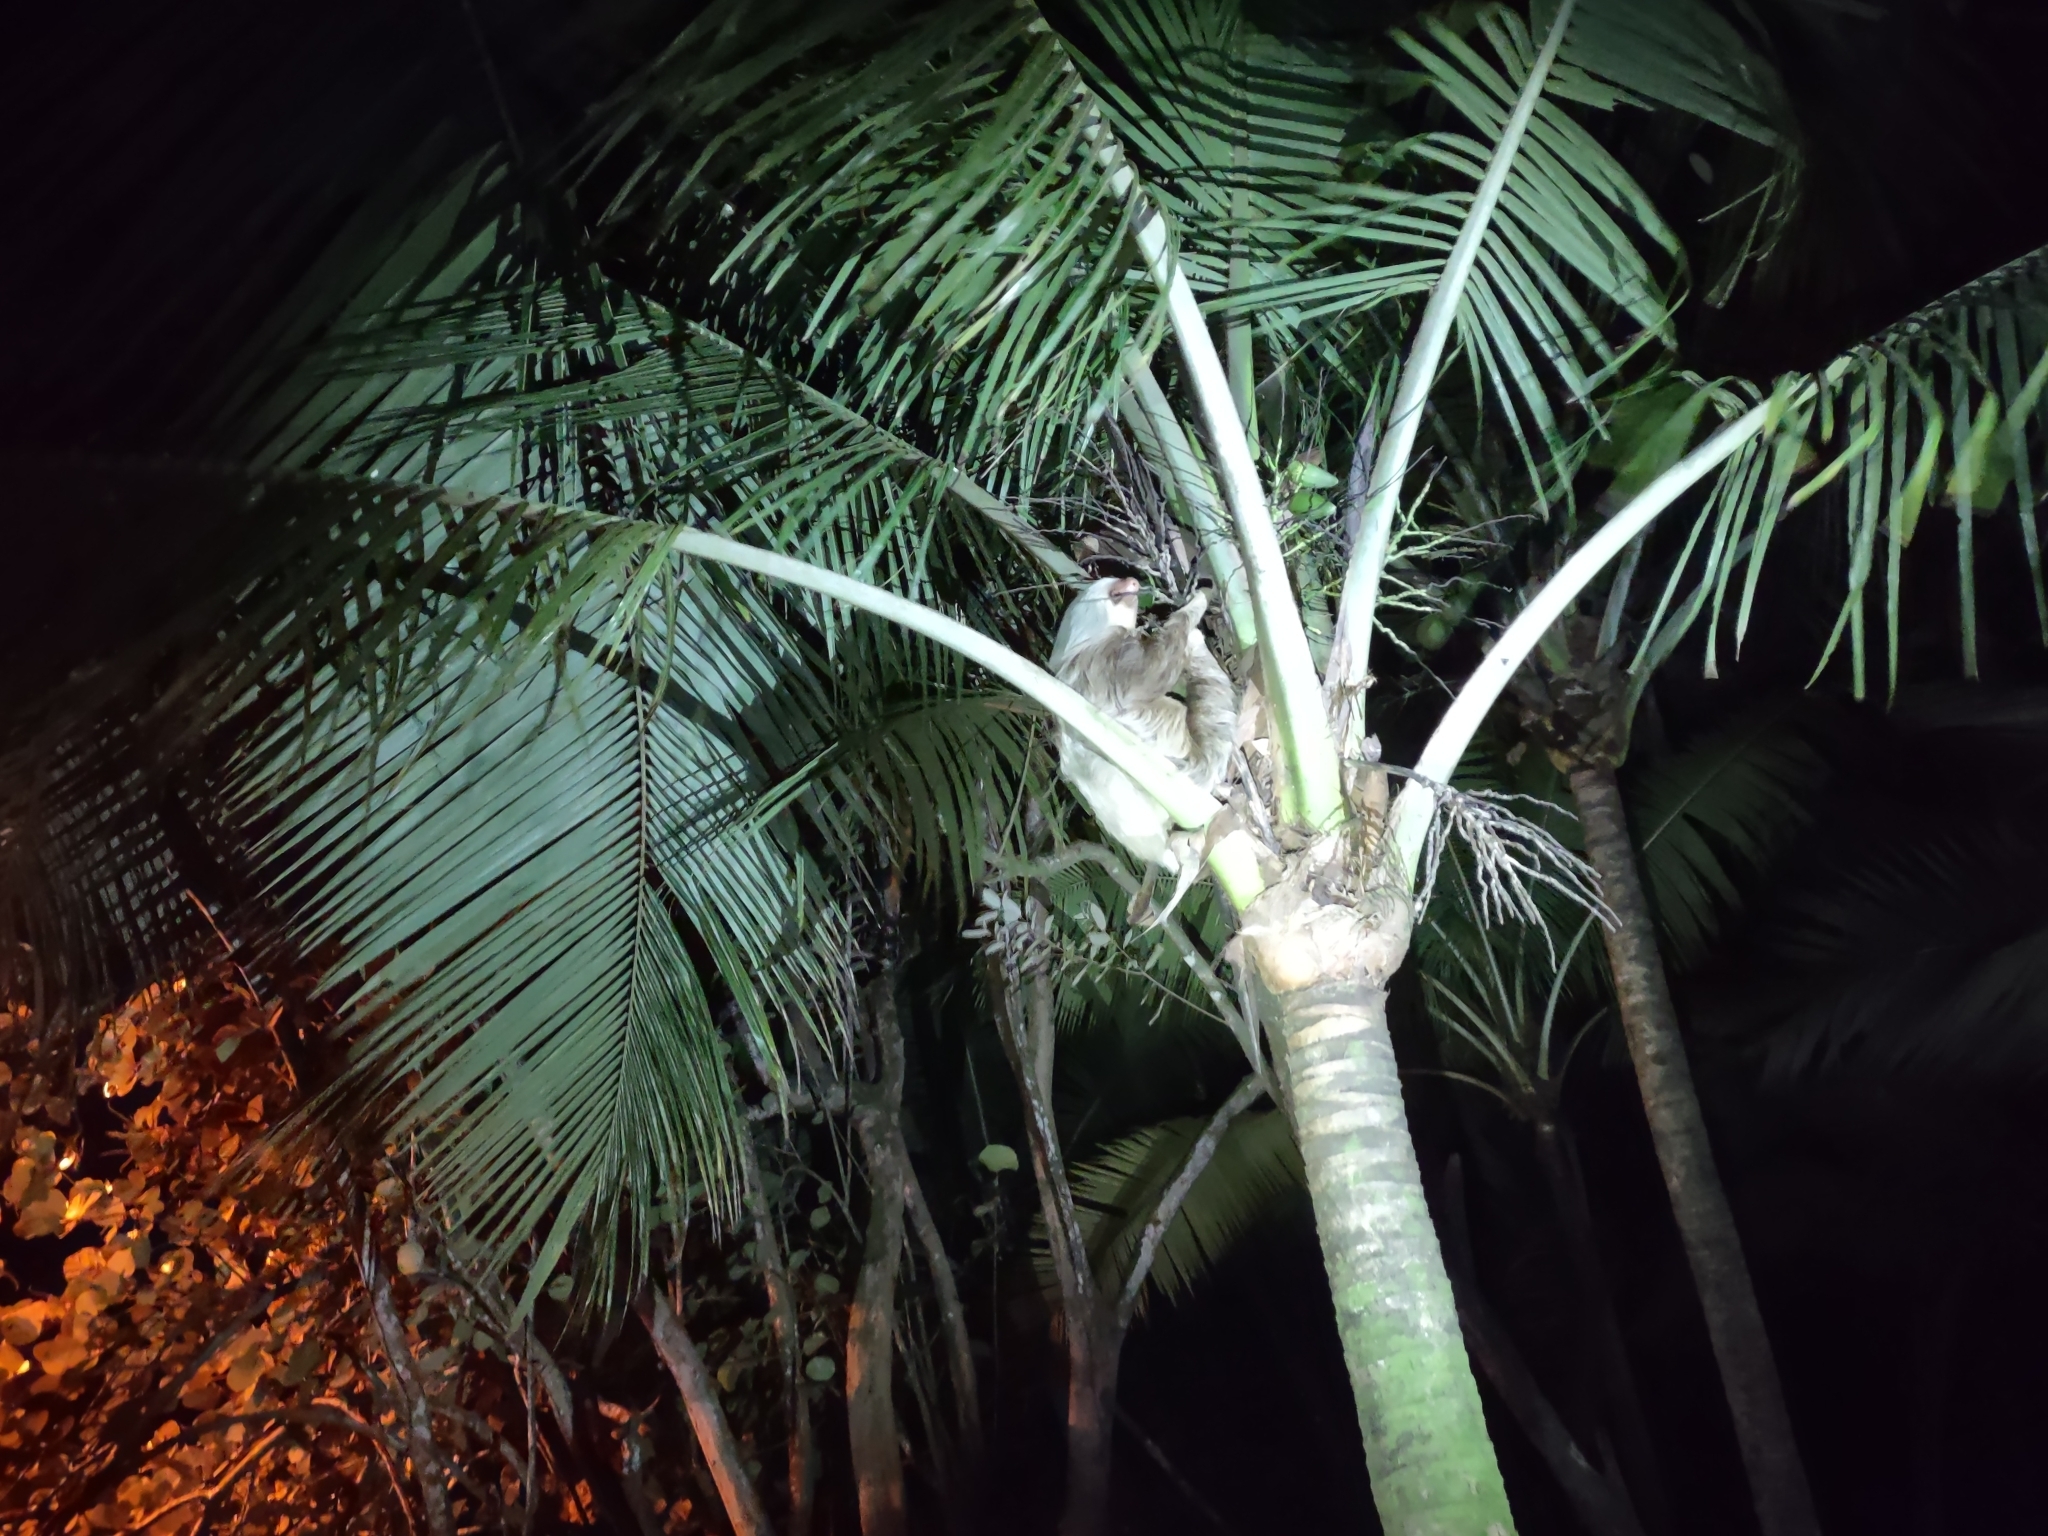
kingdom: Animalia
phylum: Chordata
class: Mammalia
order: Pilosa
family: Megalonychidae
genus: Choloepus
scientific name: Choloepus hoffmanni
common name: Hoffmann's two-toed sloth
